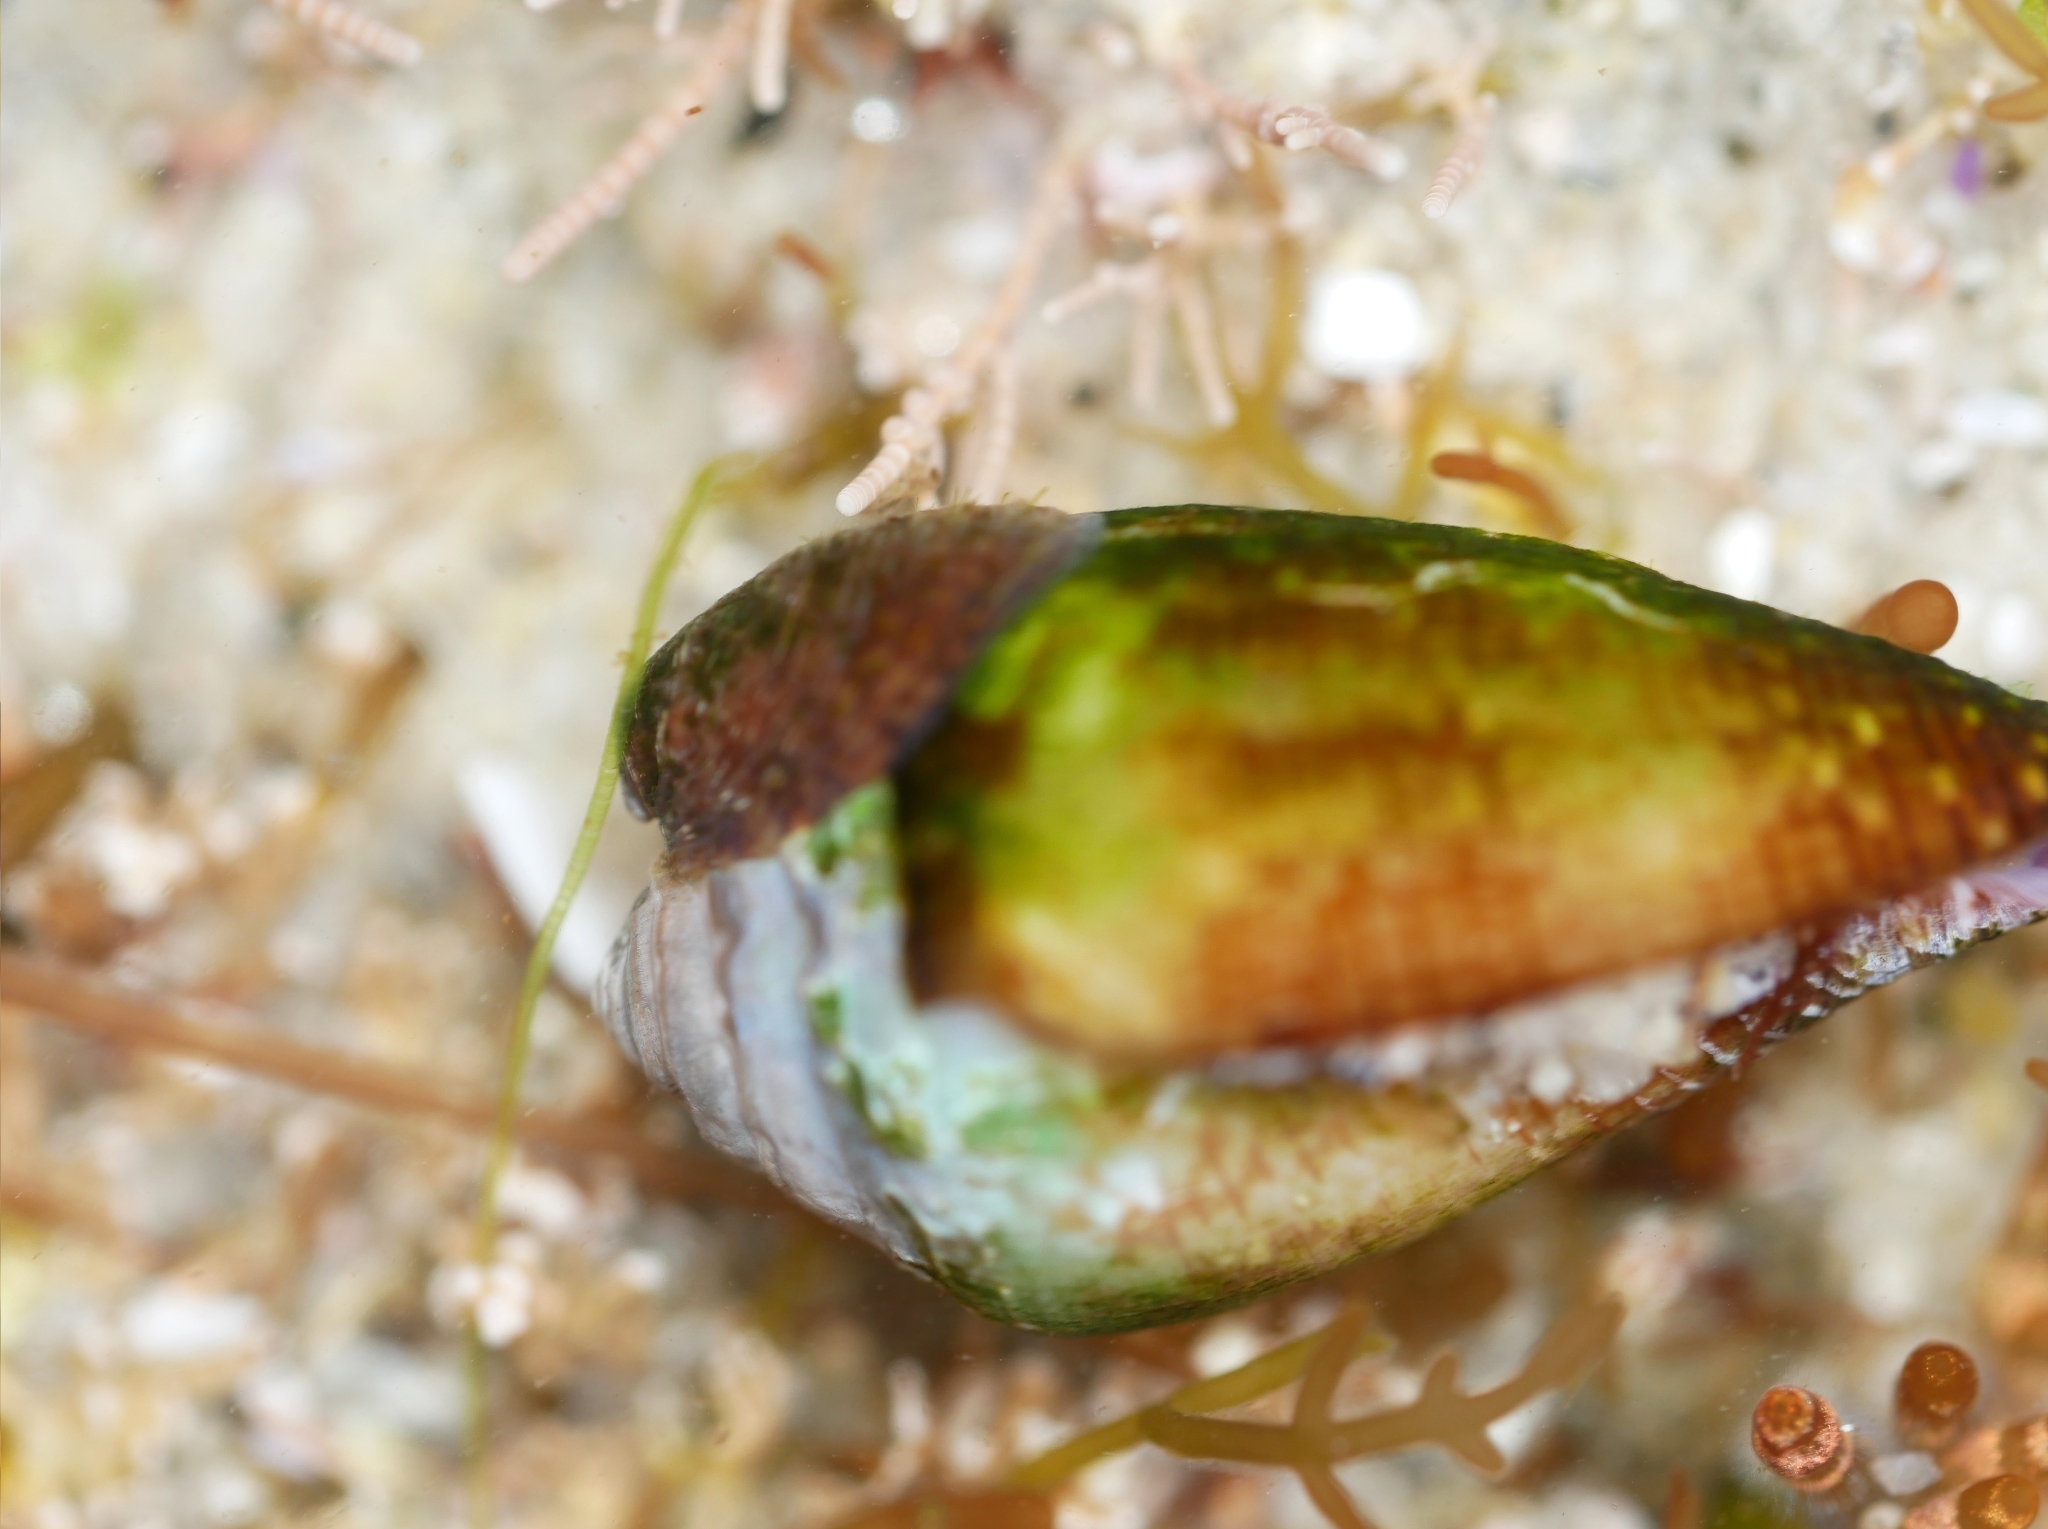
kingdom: Animalia
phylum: Mollusca
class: Gastropoda
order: Neogastropoda
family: Conidae
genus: Californiconus
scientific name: Californiconus californicus
